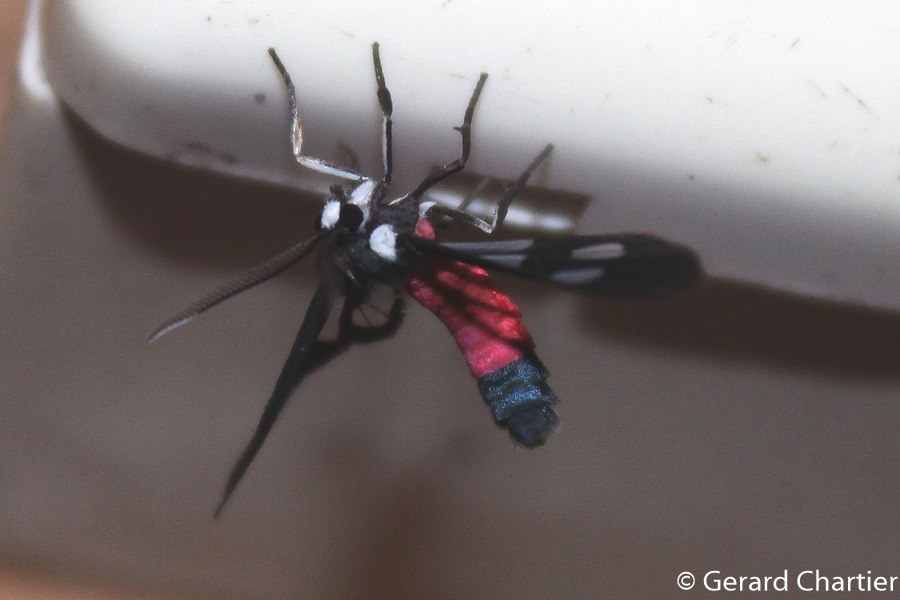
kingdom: Animalia
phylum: Arthropoda
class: Insecta
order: Lepidoptera
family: Erebidae
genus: Amata
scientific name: Amata fouqueti
